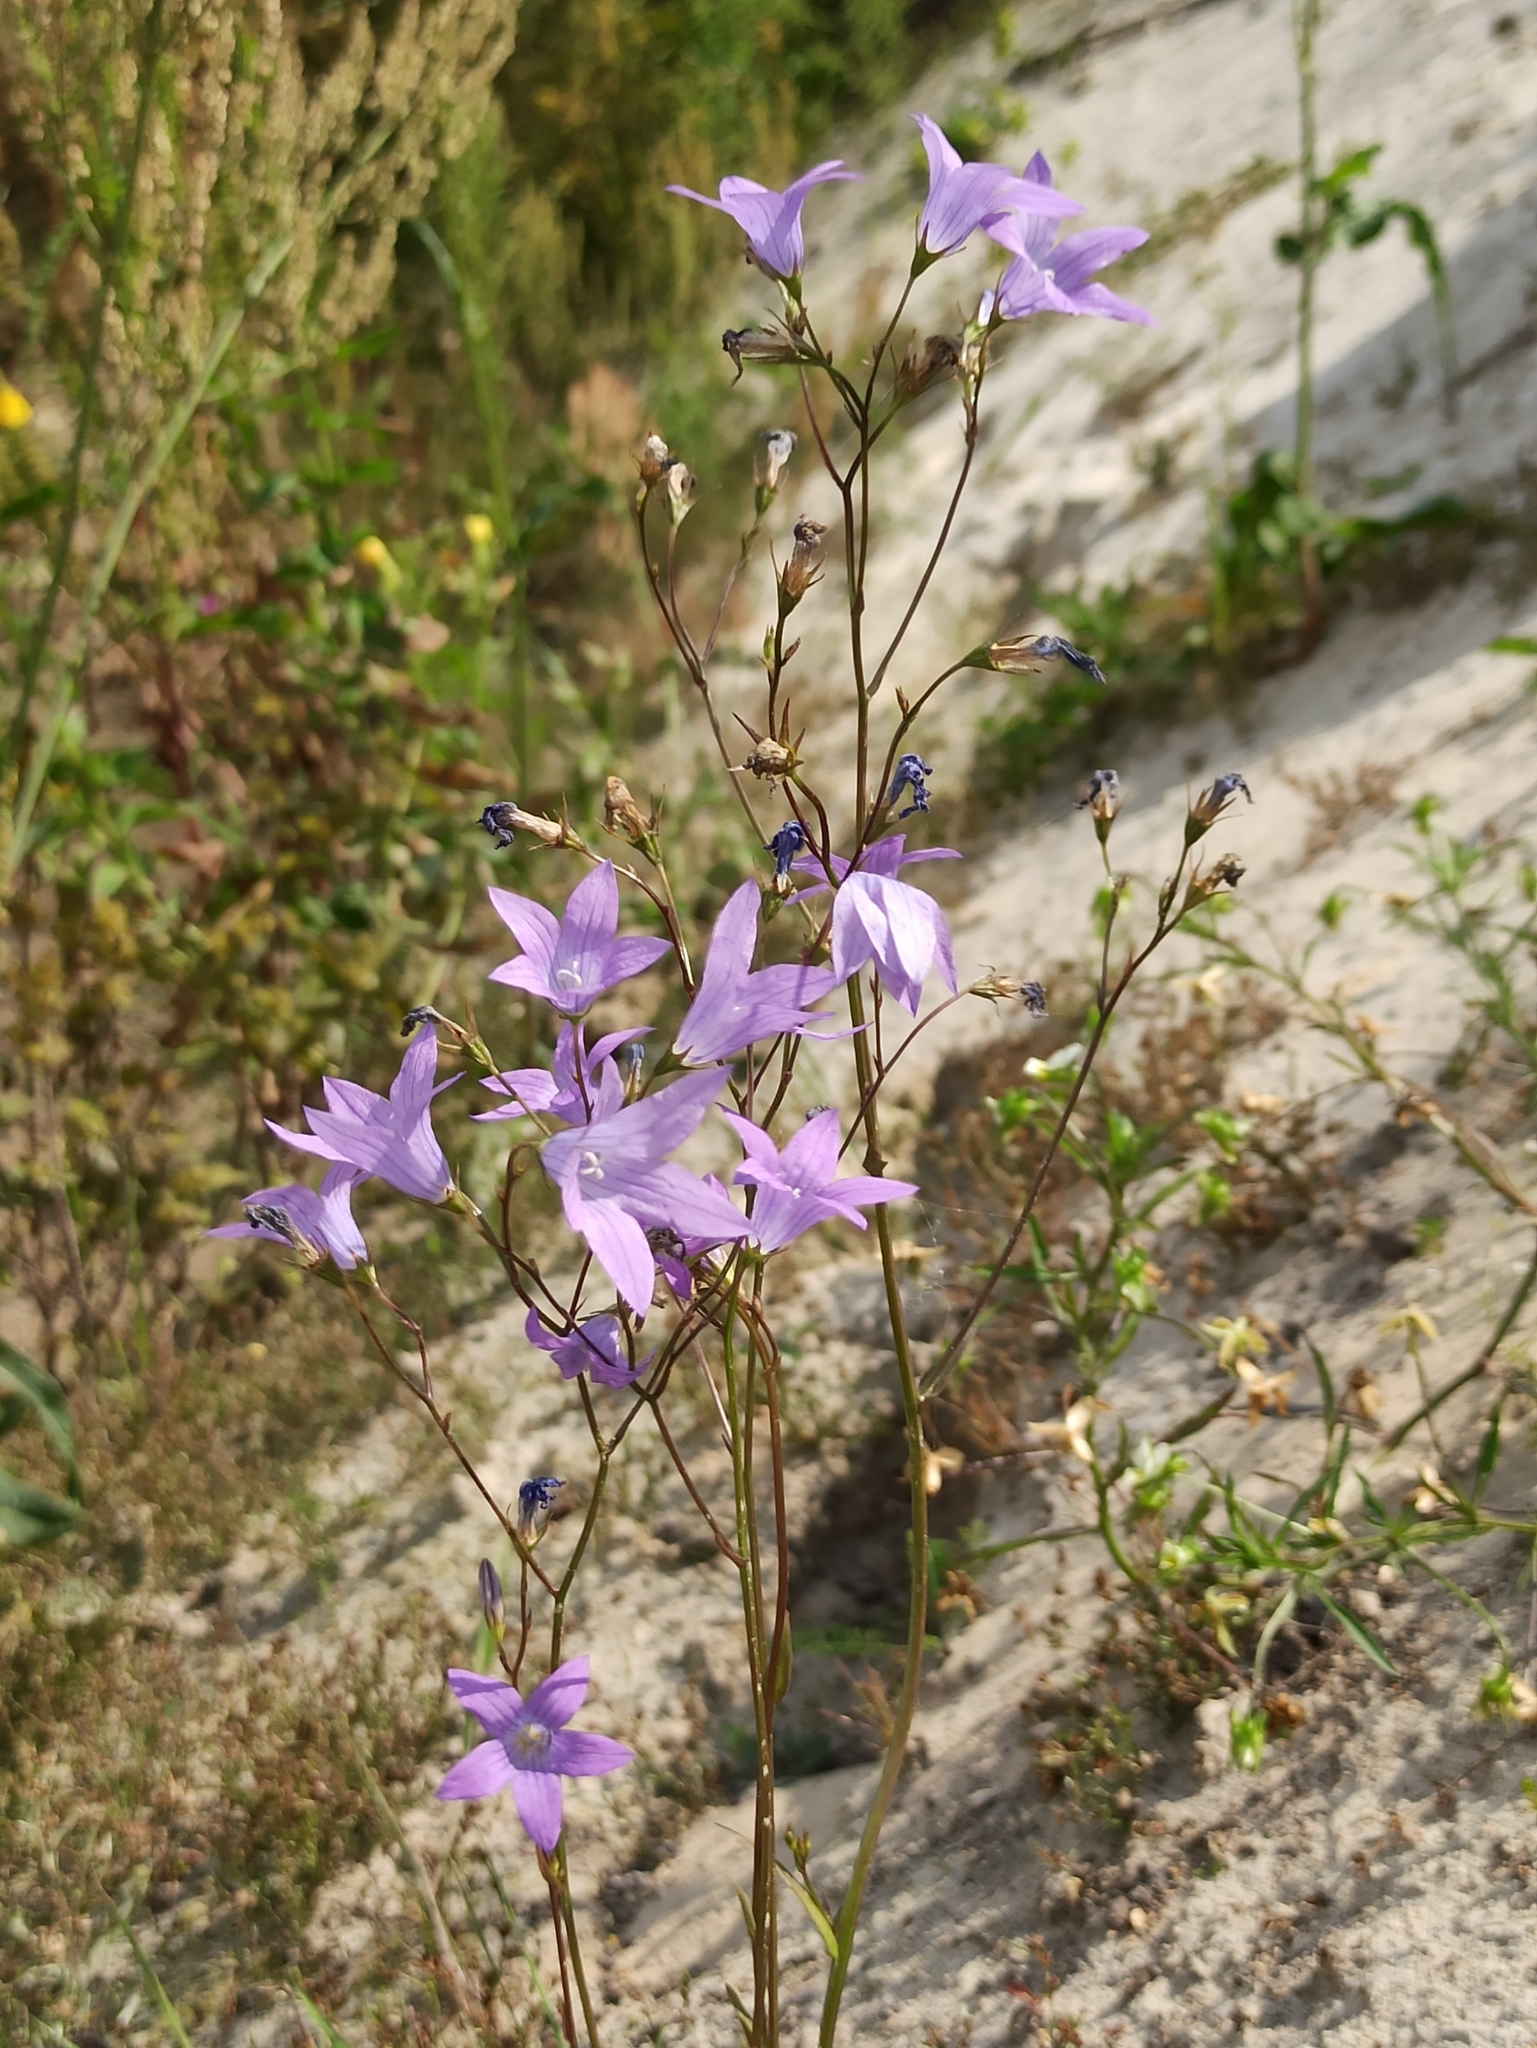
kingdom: Plantae
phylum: Tracheophyta
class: Magnoliopsida
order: Asterales
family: Campanulaceae
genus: Campanula
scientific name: Campanula patula
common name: Spreading bellflower
